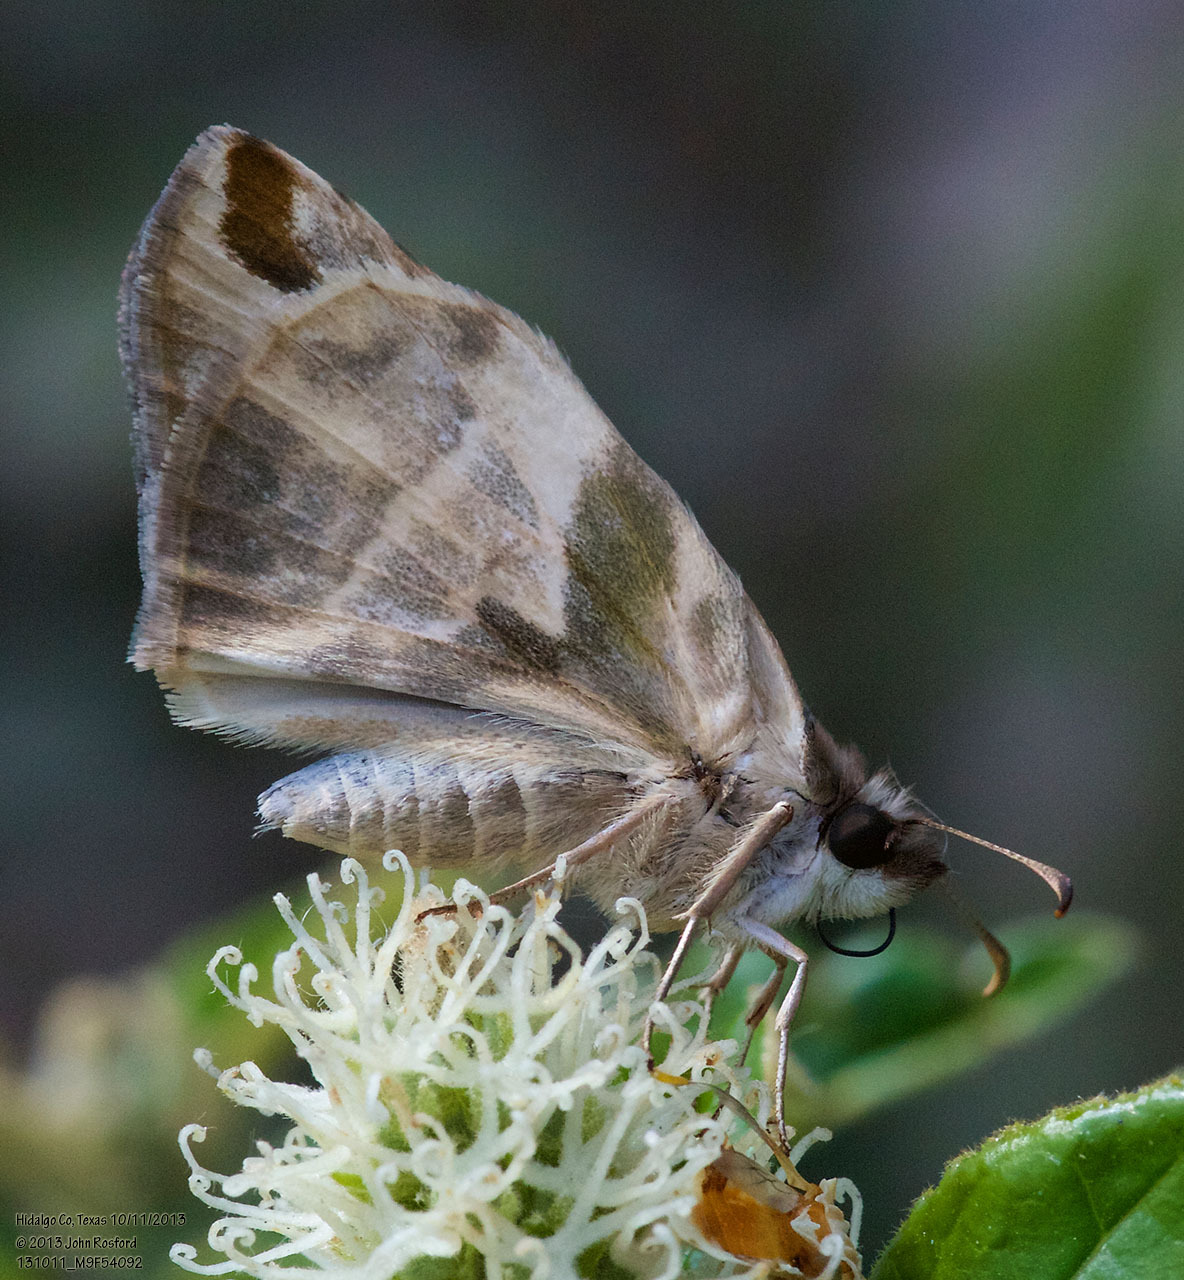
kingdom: Animalia
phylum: Arthropoda
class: Insecta
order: Lepidoptera
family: Hesperiidae
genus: Heliopetes
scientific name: Heliopetes laviana
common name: Laviana white-skipper
